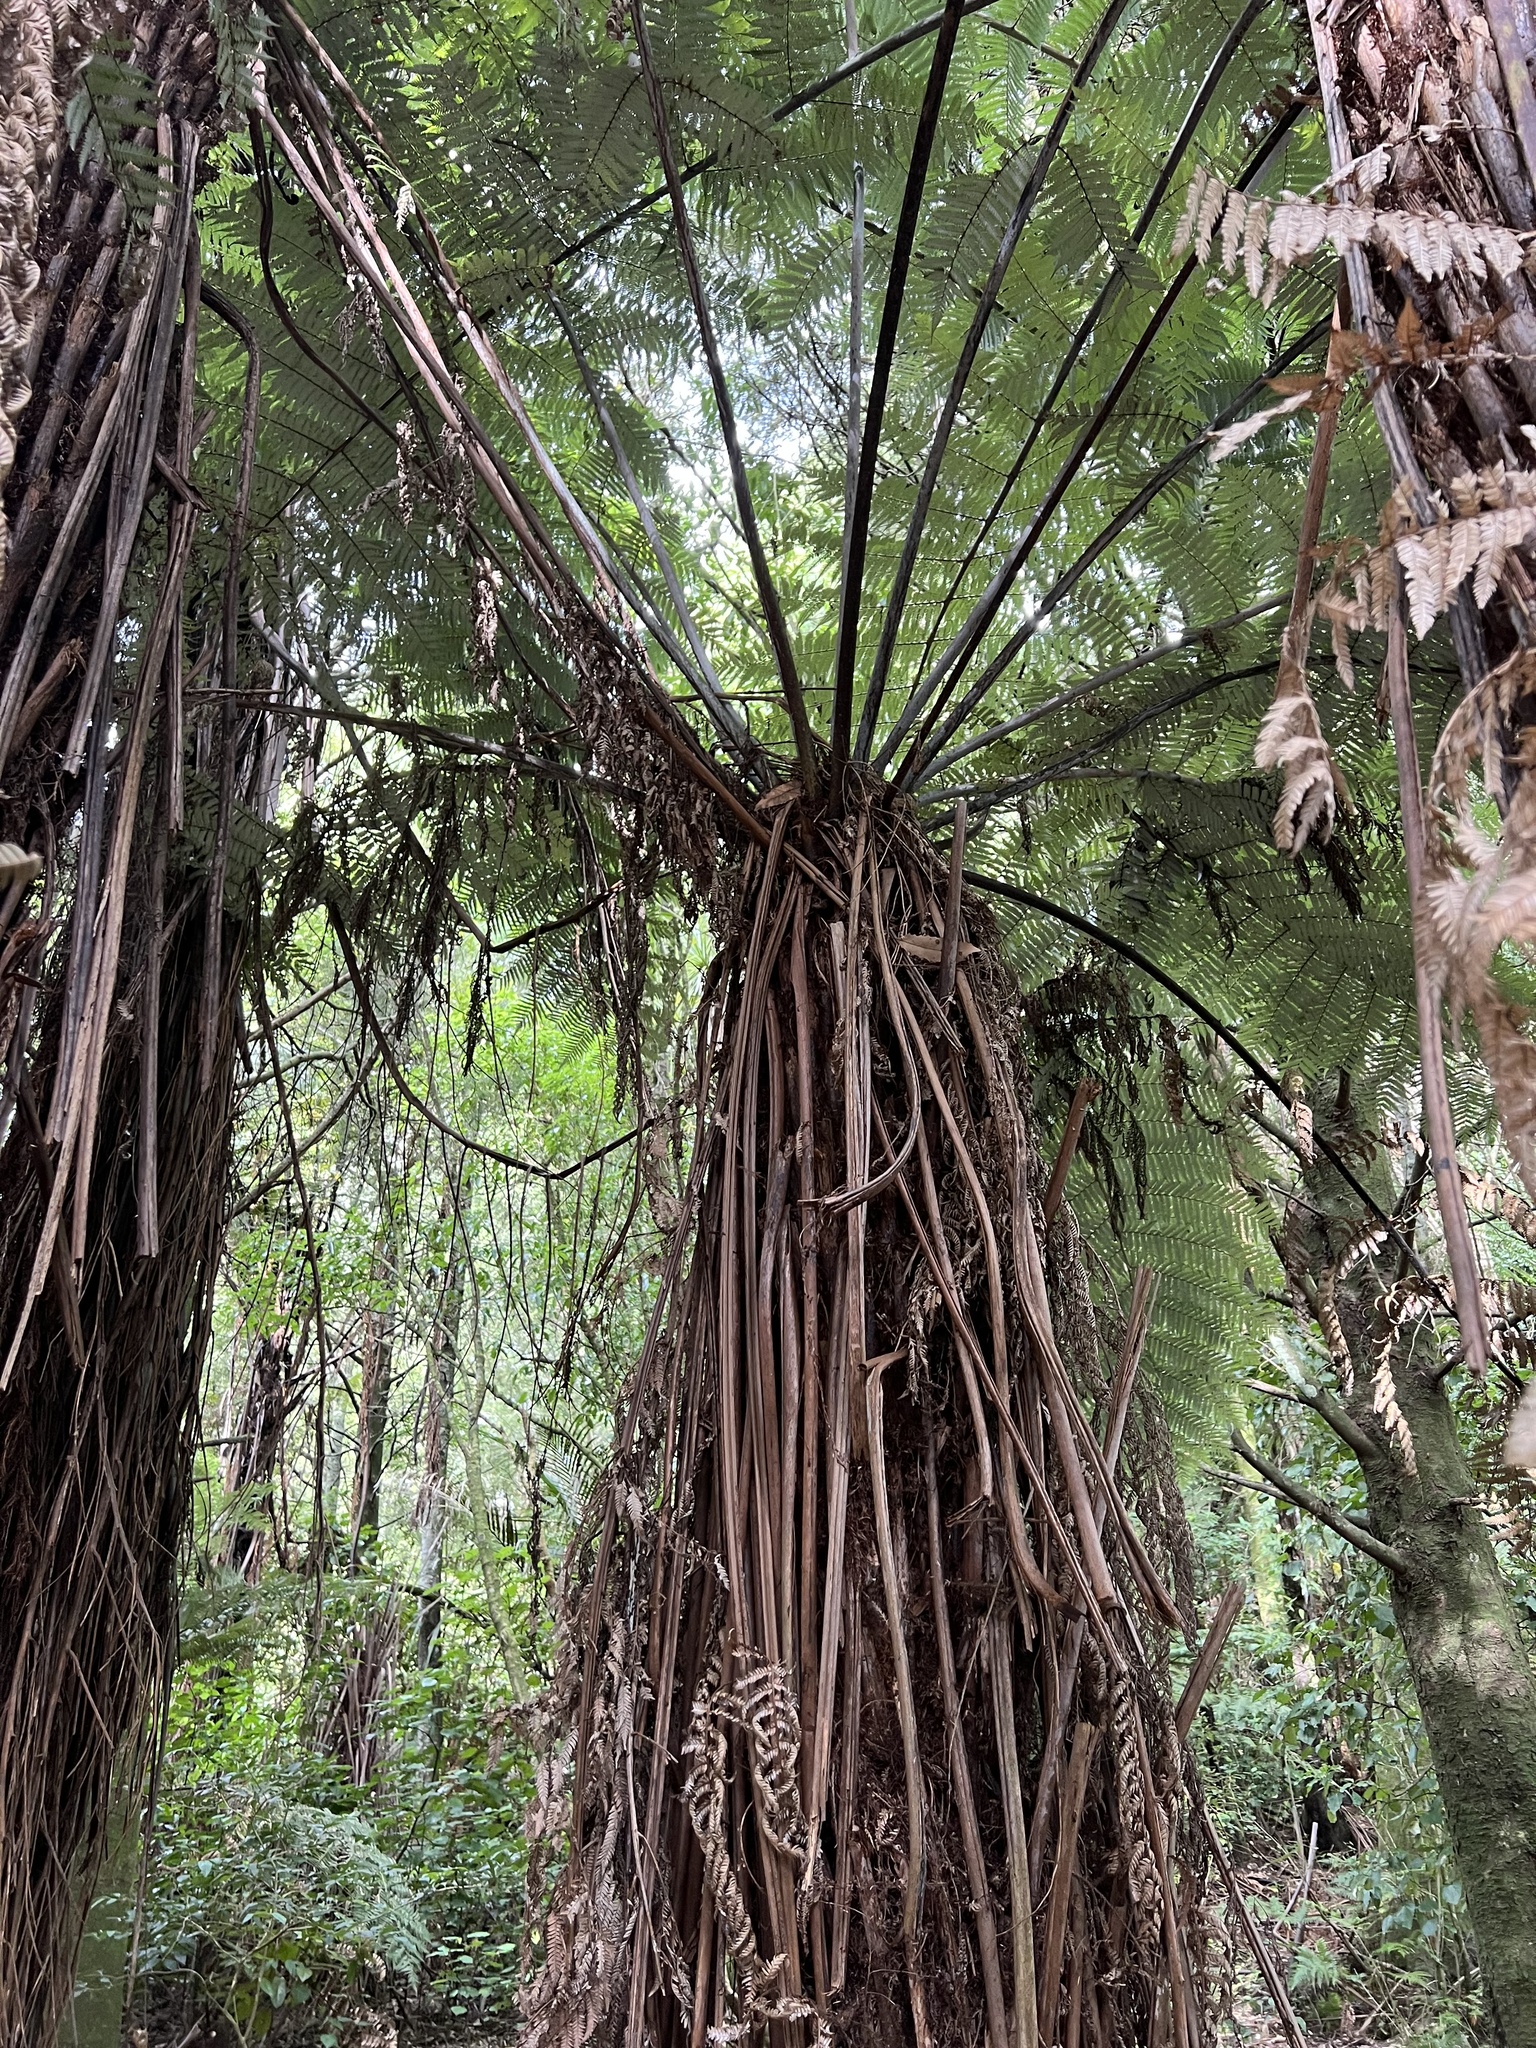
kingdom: Plantae
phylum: Tracheophyta
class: Polypodiopsida
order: Cyatheales
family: Cyatheaceae
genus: Alsophila
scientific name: Alsophila dealbata
